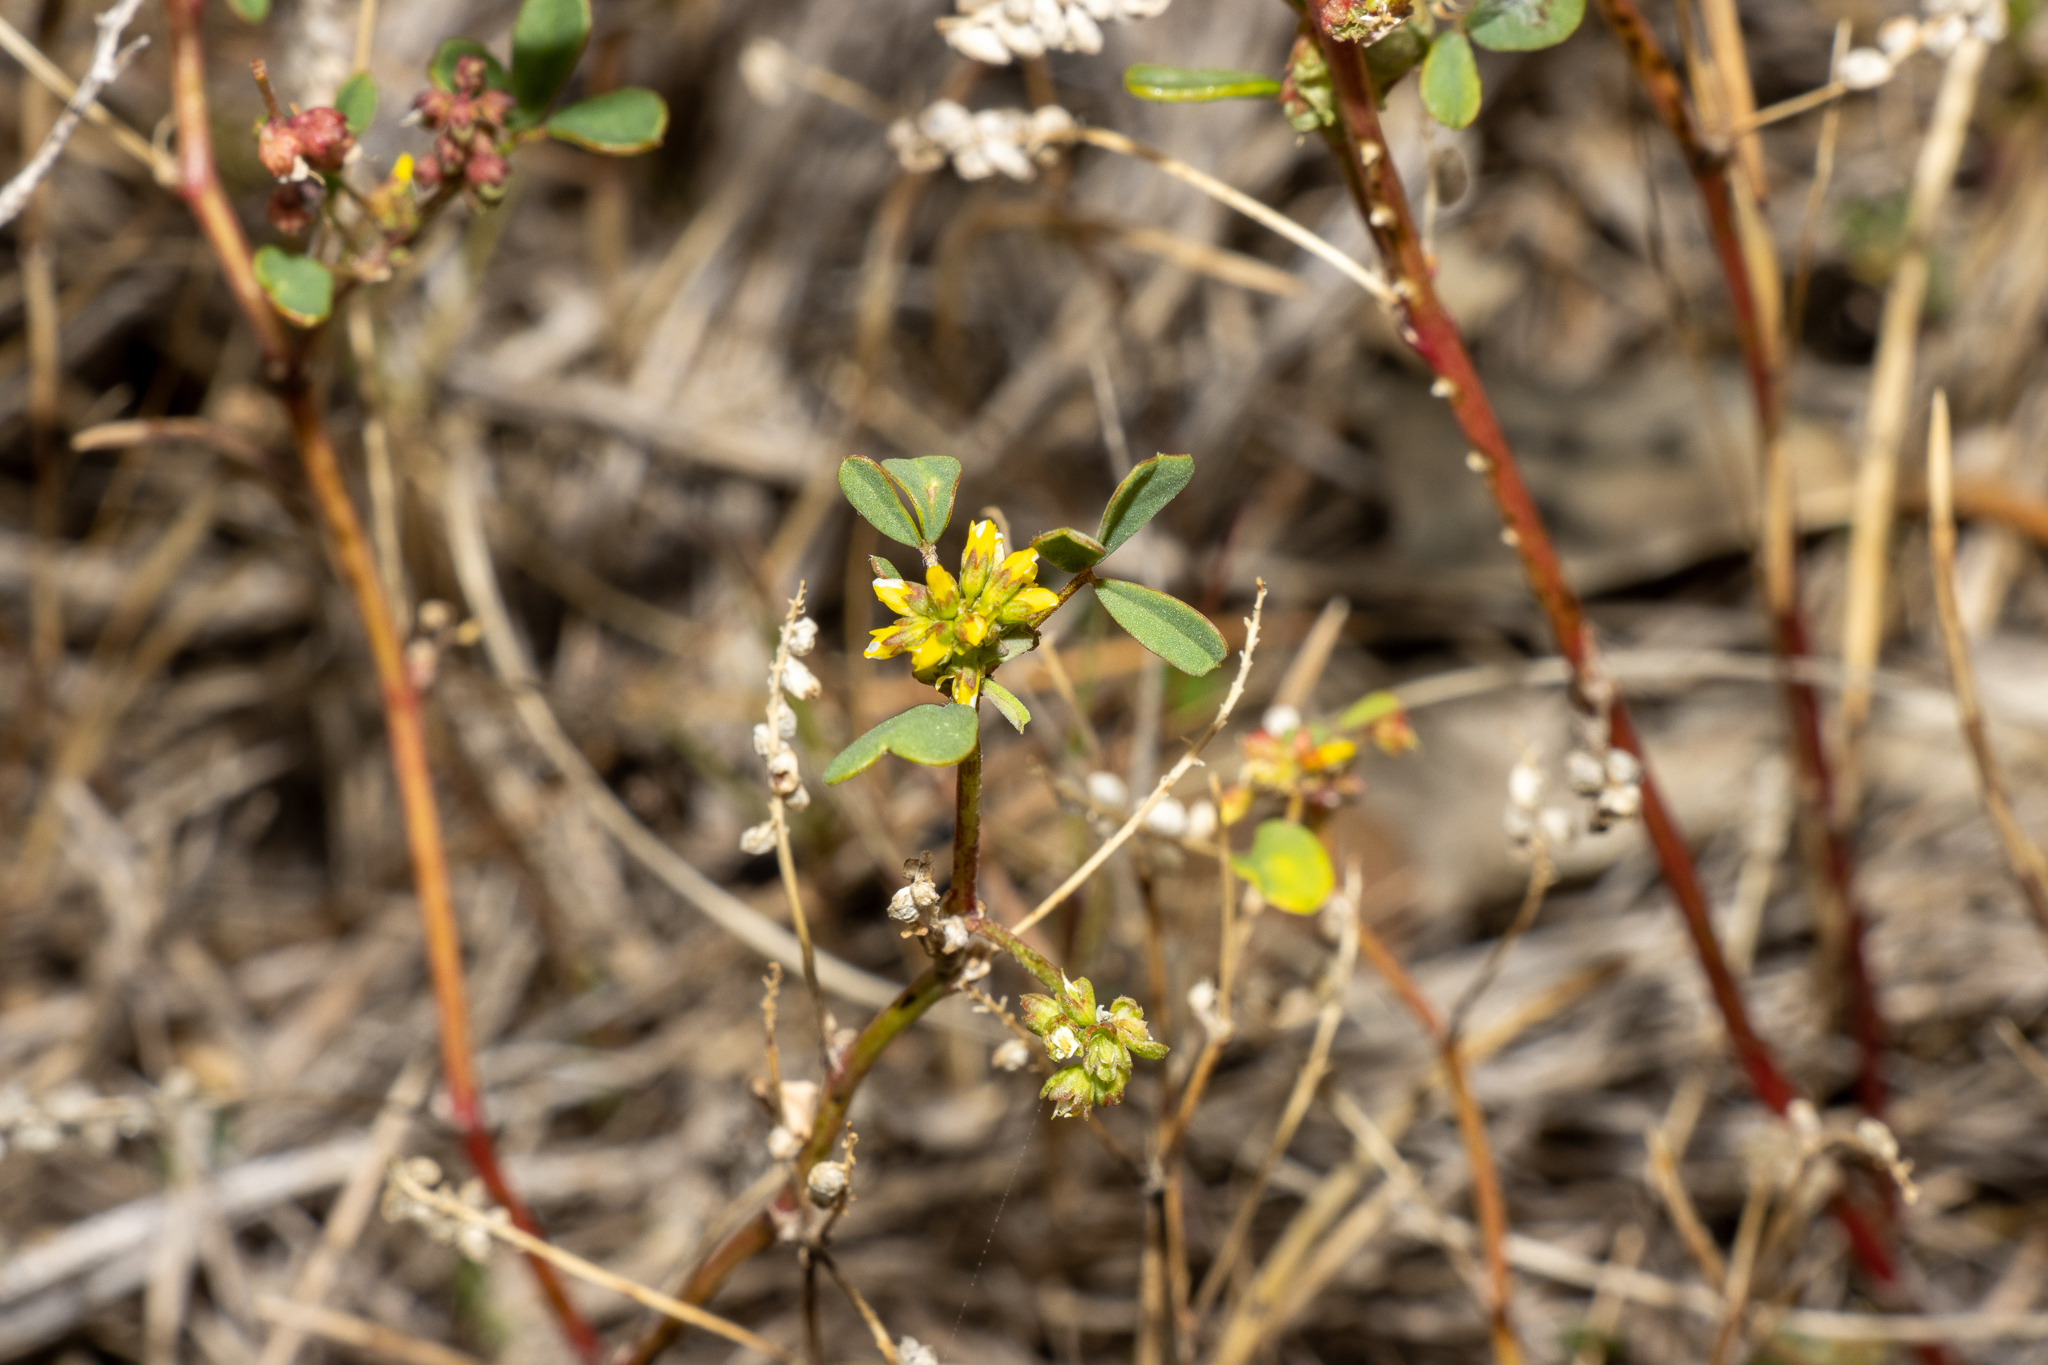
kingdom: Plantae
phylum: Tracheophyta
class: Magnoliopsida
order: Fabales
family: Fabaceae
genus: Melilotus
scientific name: Melilotus indicus
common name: Small melilot
